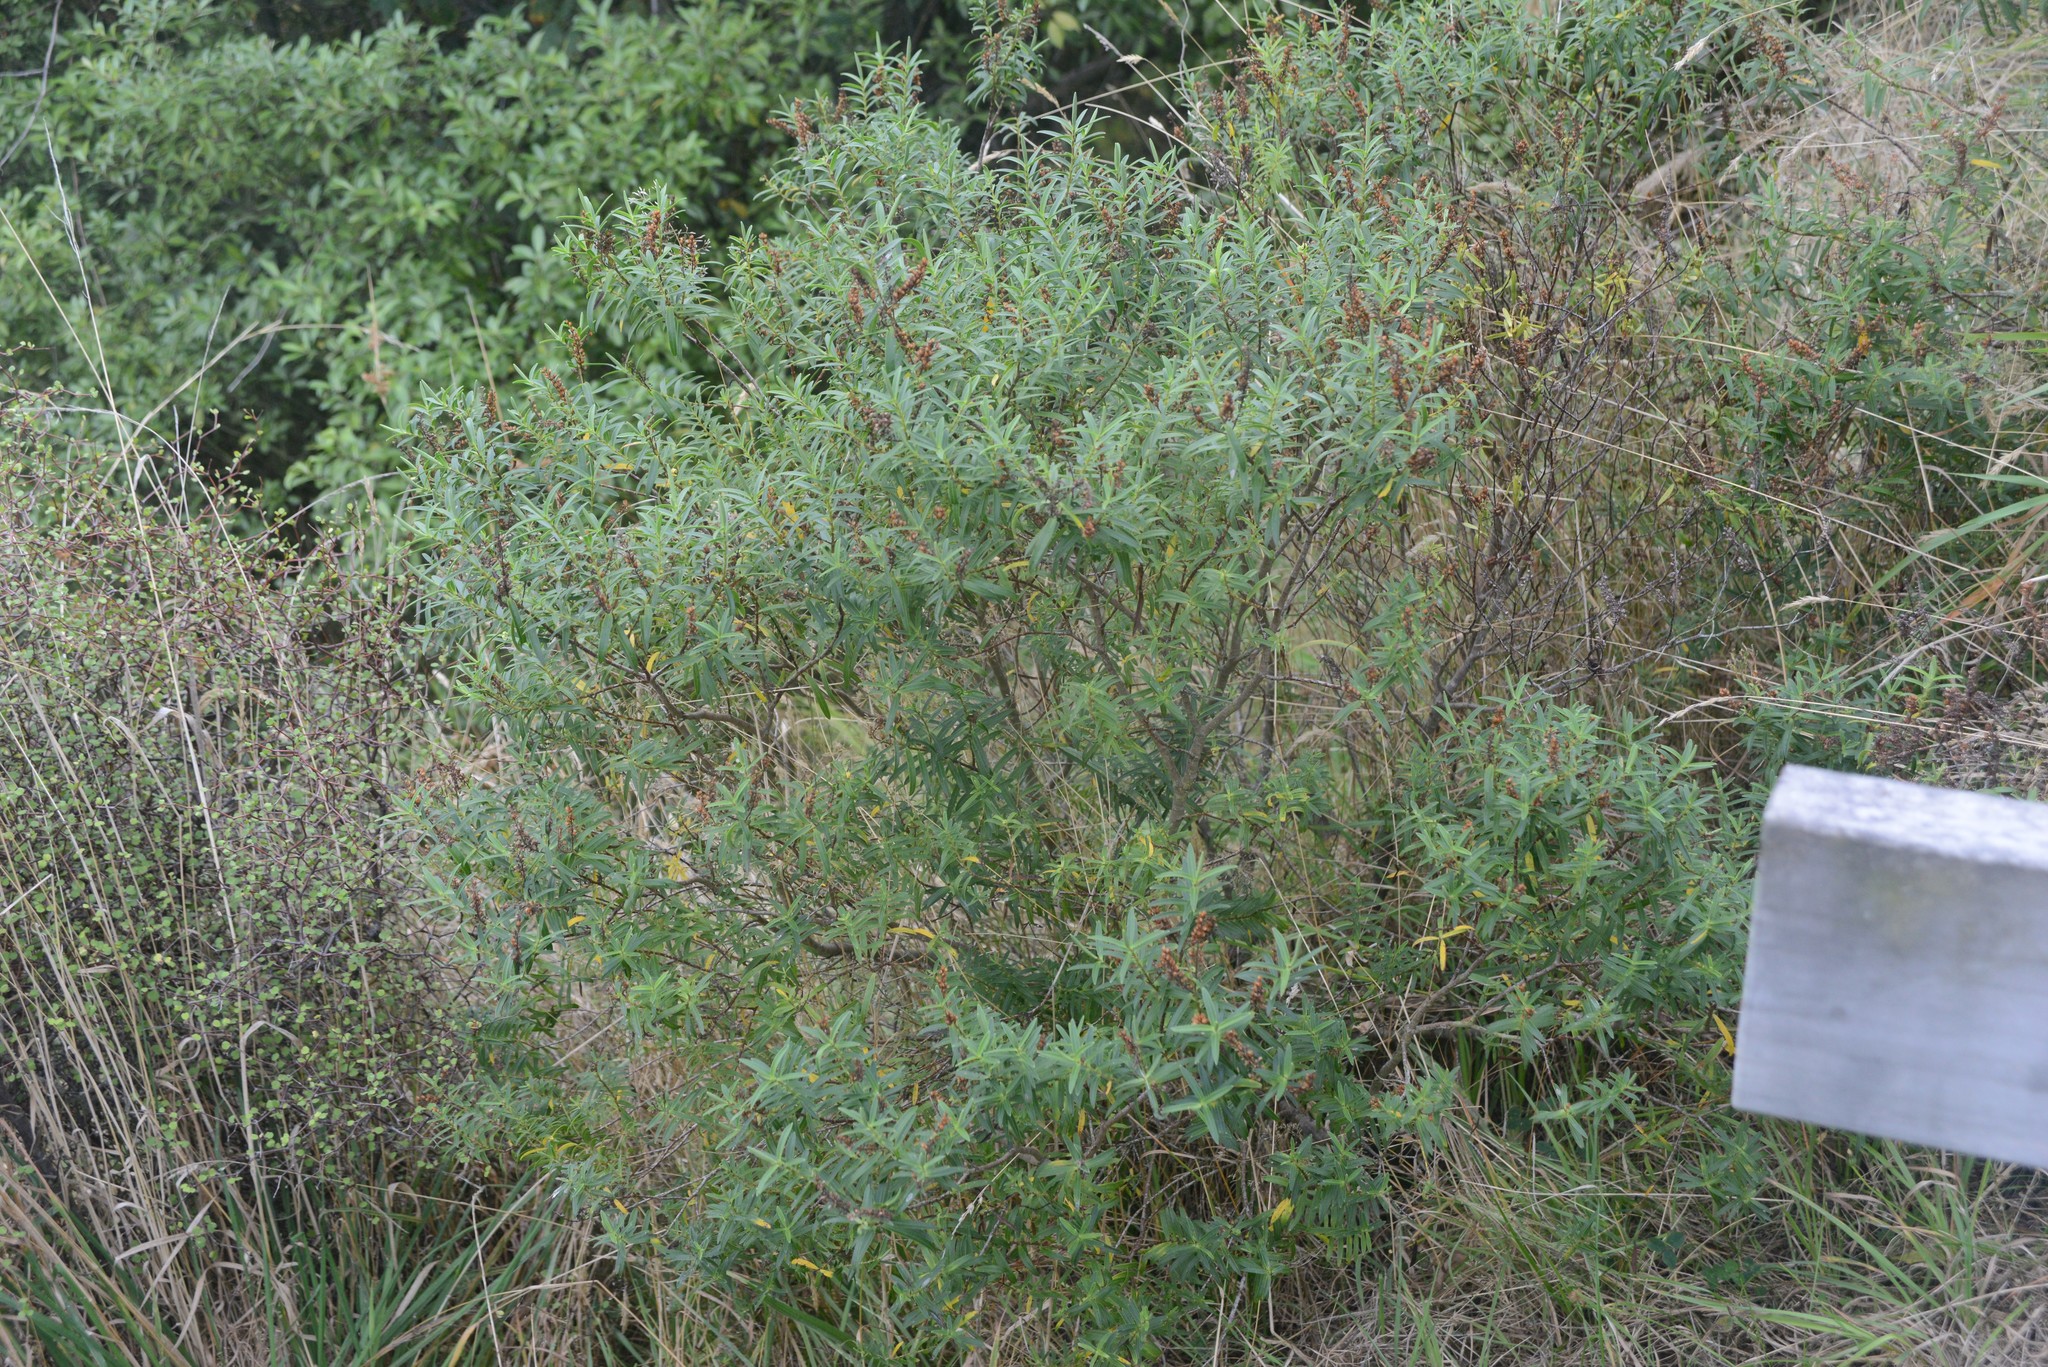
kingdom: Plantae
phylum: Tracheophyta
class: Magnoliopsida
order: Lamiales
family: Plantaginaceae
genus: Veronica
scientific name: Veronica strictissima
